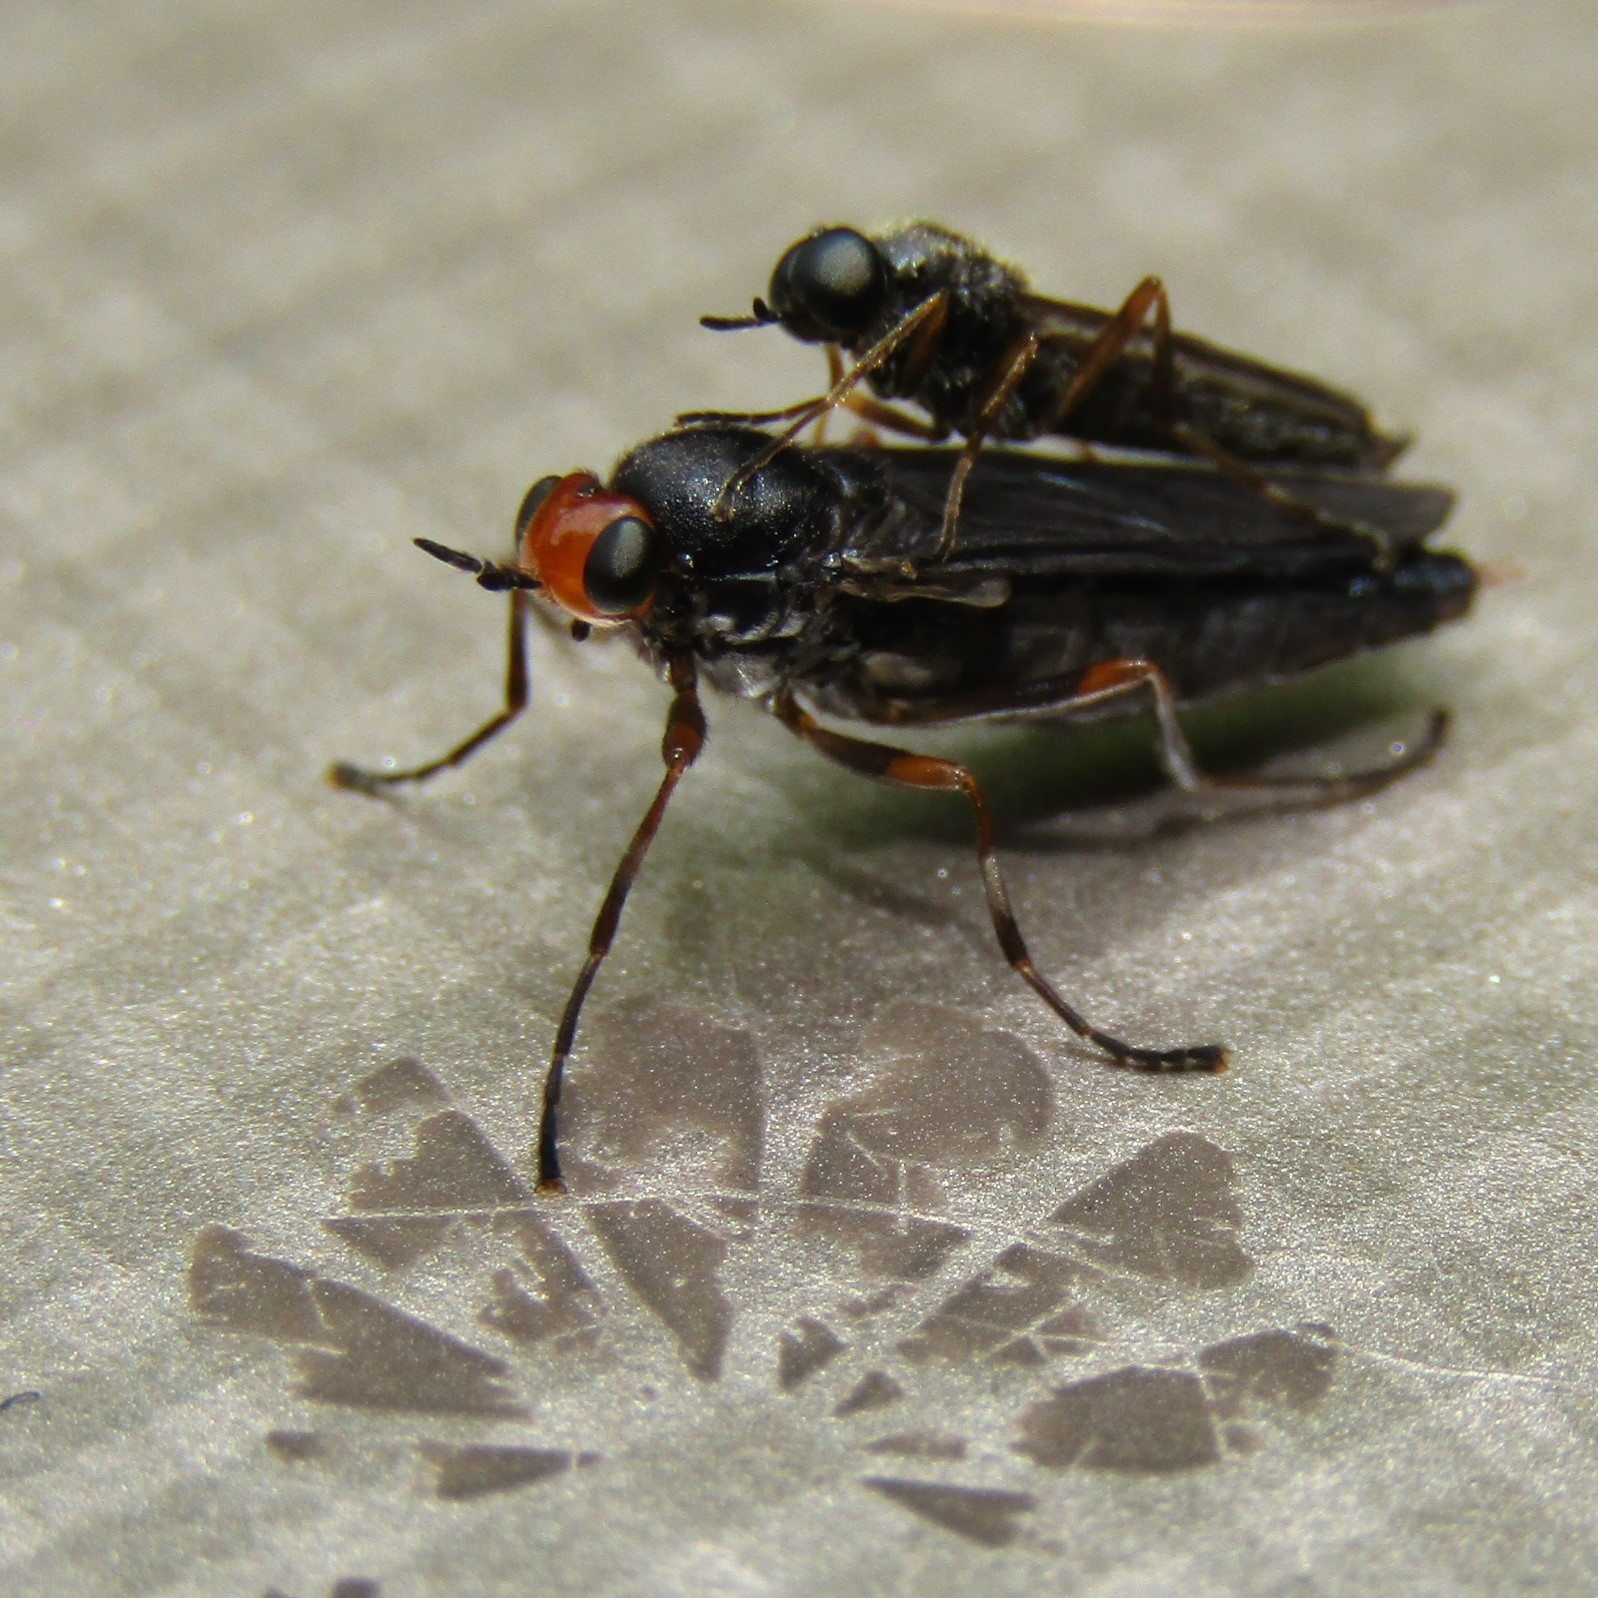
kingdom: Animalia
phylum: Arthropoda
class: Insecta
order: Diptera
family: Stratiomyidae
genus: Inopus
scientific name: Inopus rubriceps
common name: Soldier fly
